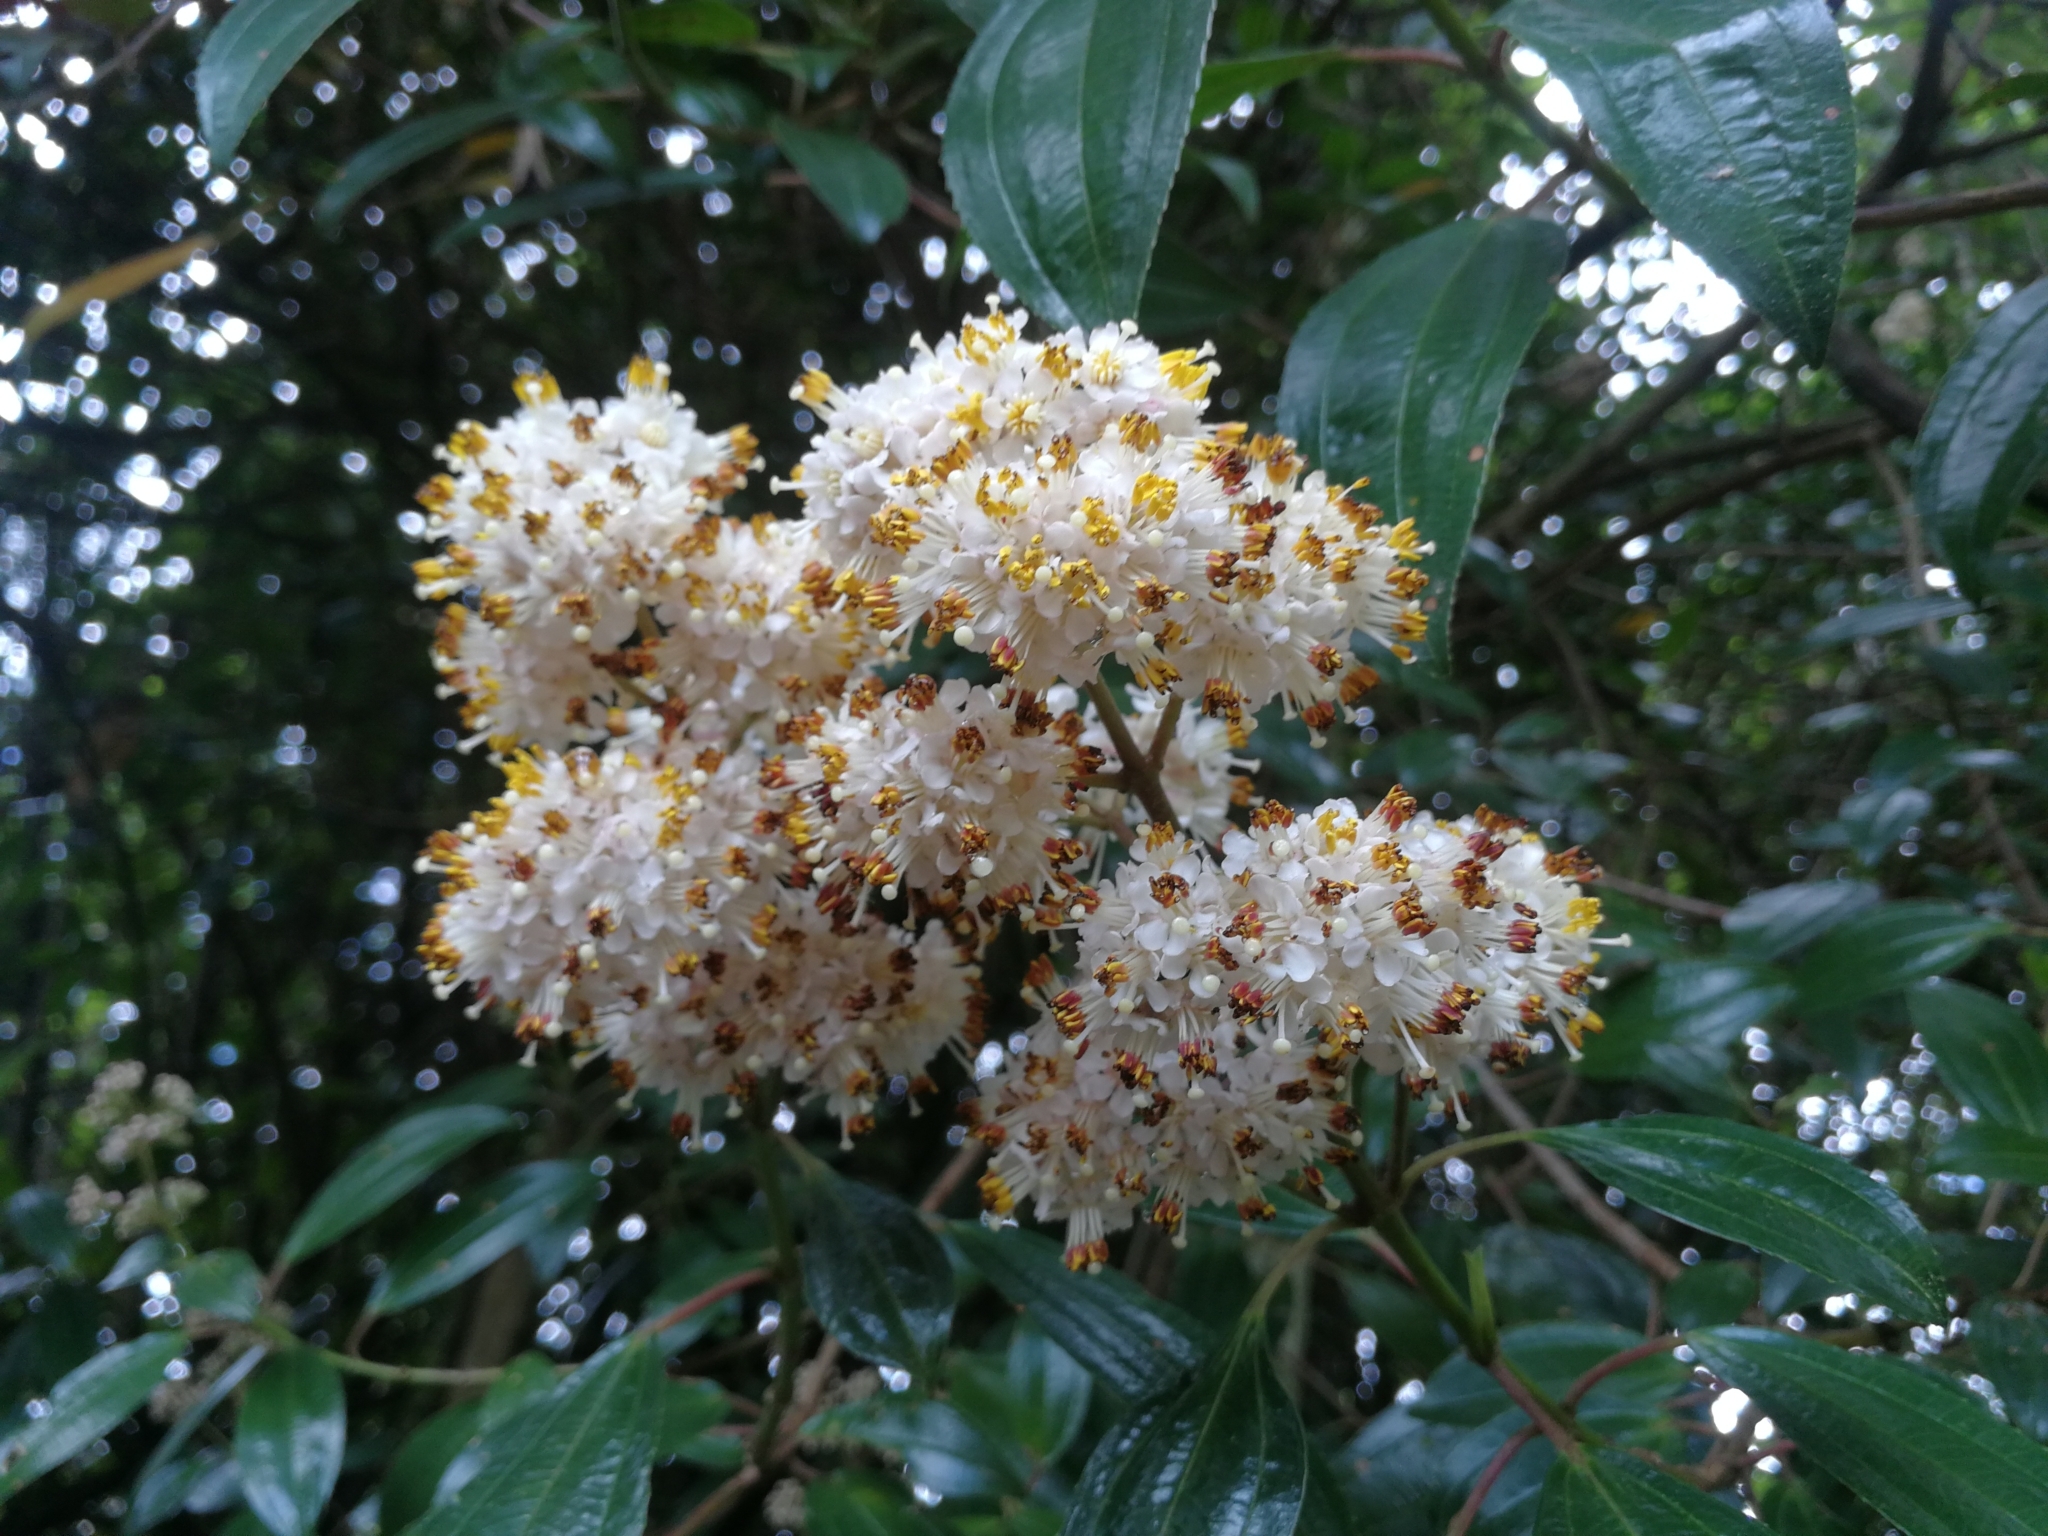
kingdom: Plantae
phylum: Tracheophyta
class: Magnoliopsida
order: Myrtales
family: Melastomataceae
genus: Miconia
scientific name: Miconia crocea
